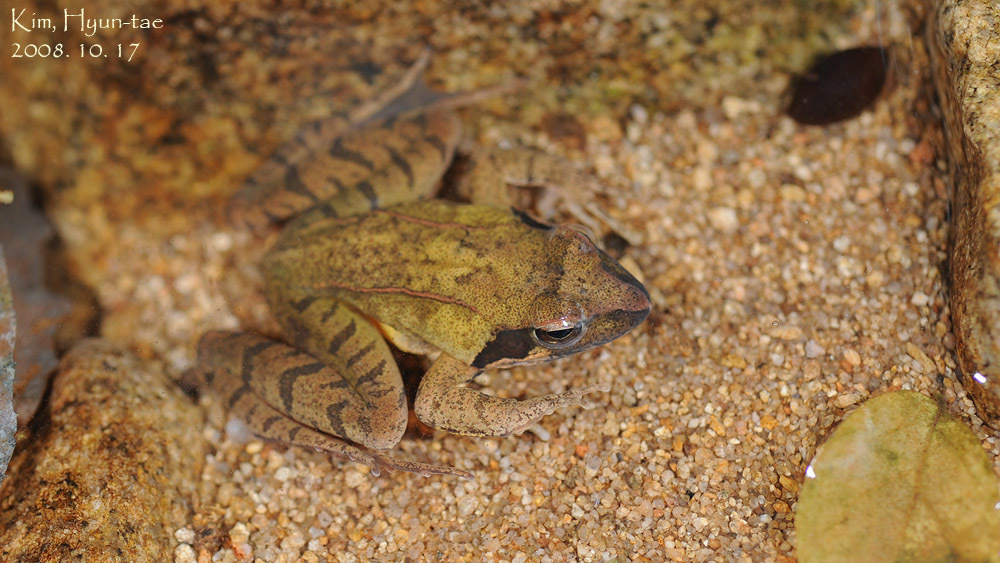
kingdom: Animalia
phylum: Chordata
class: Amphibia
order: Anura
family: Ranidae
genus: Rana
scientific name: Rana uenoi
